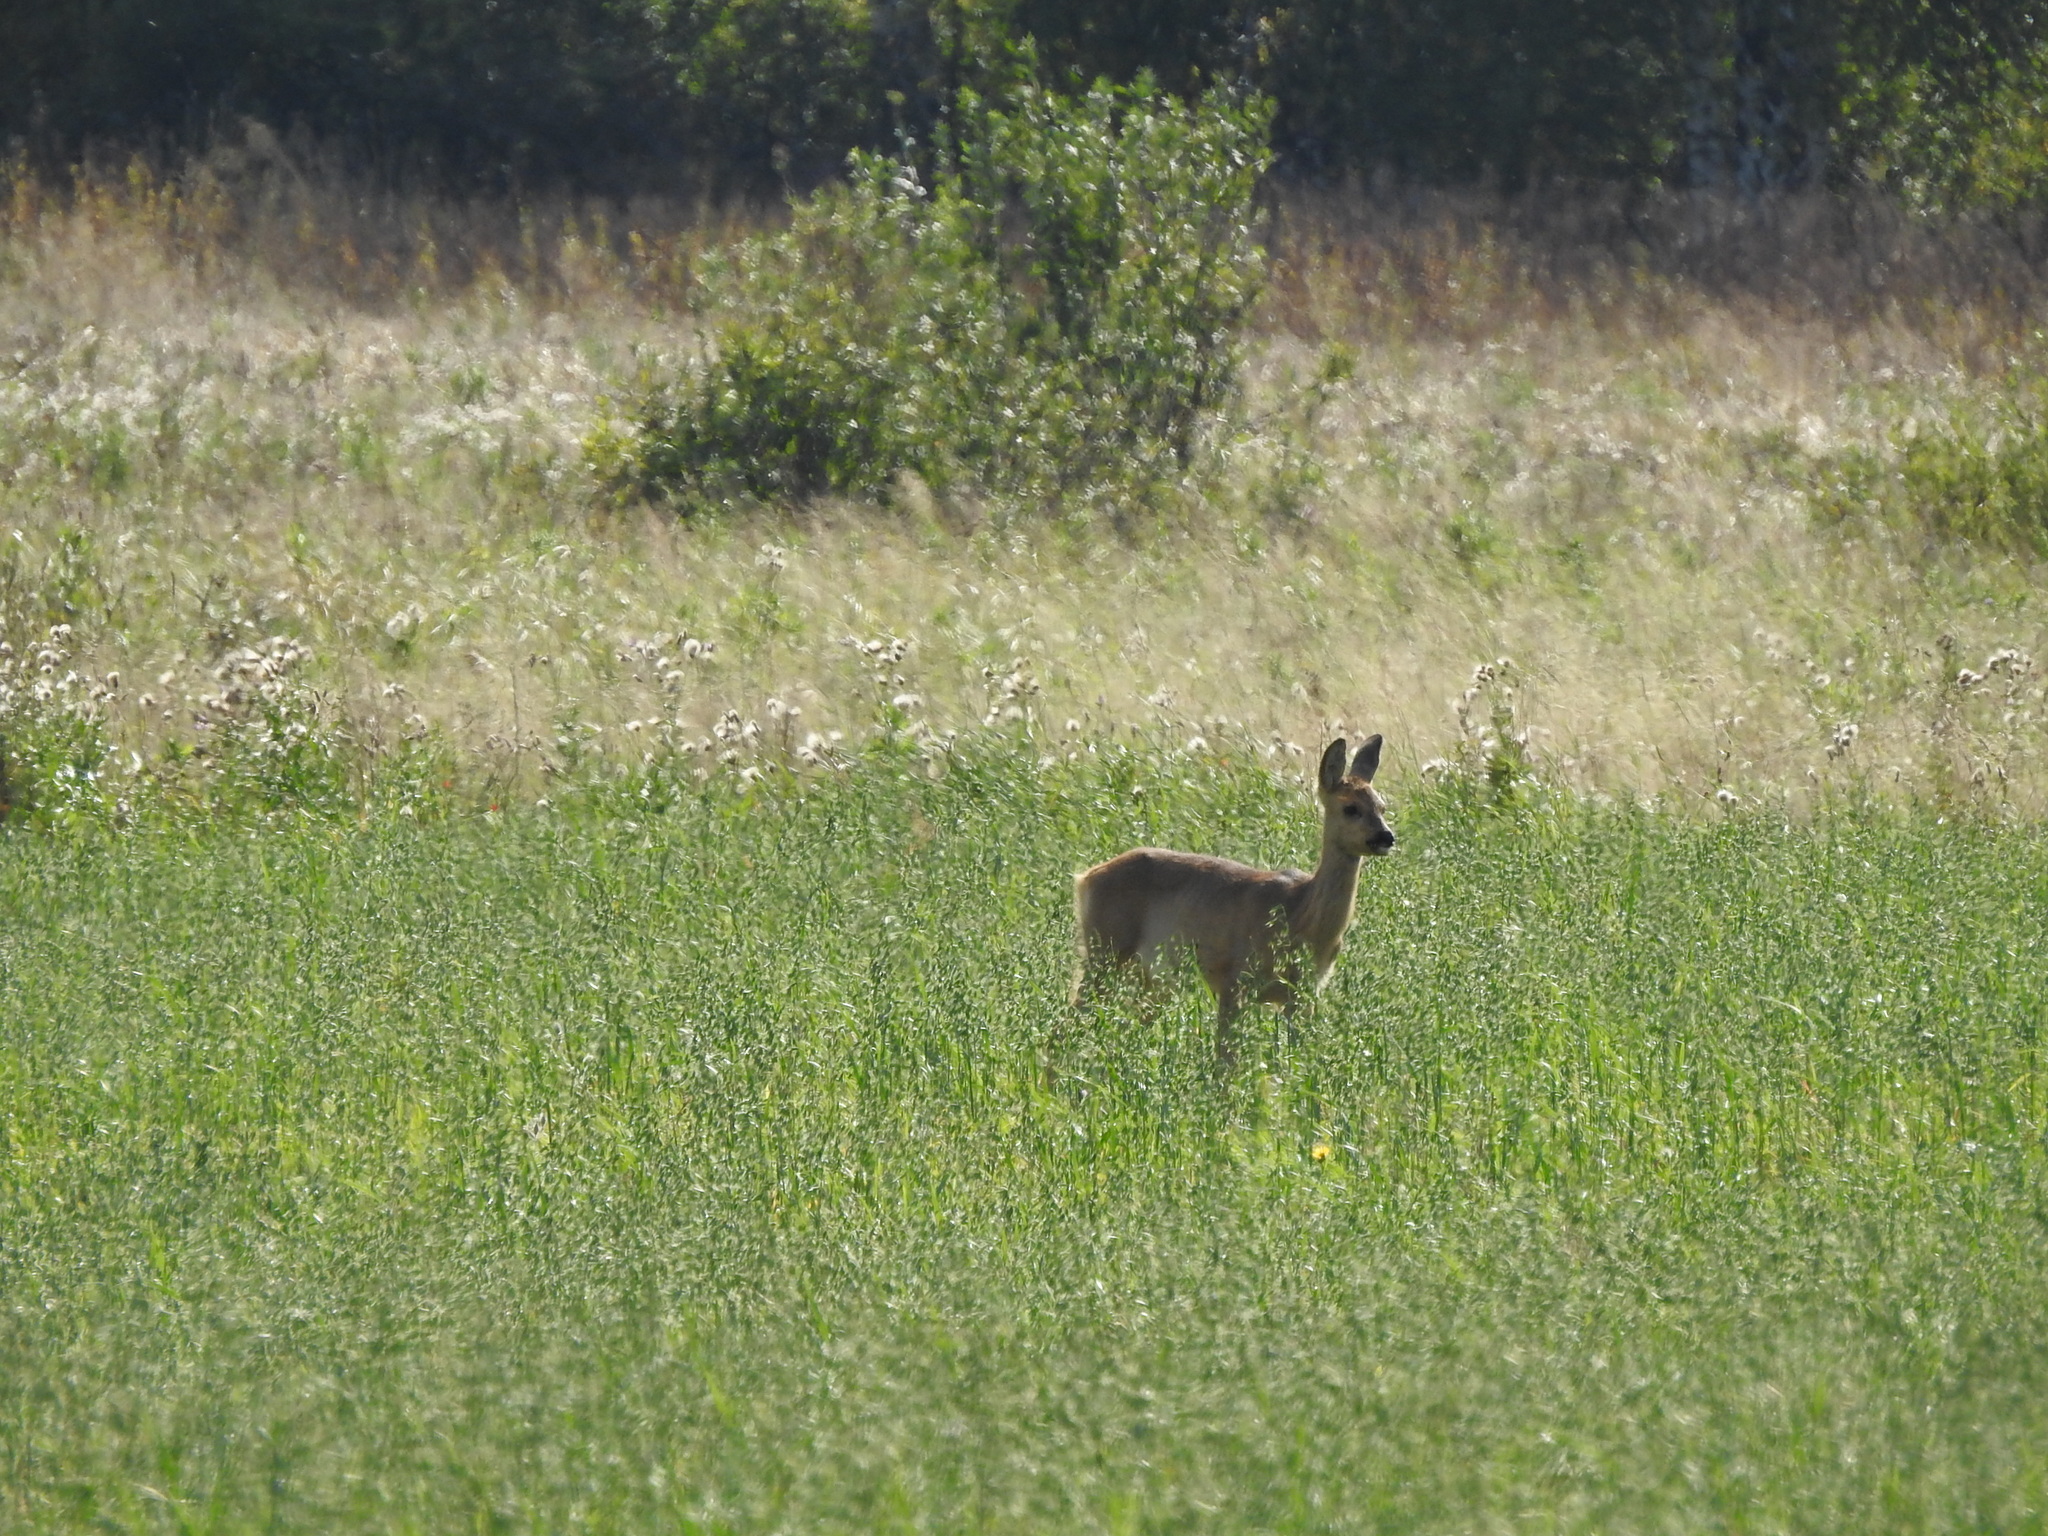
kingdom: Animalia
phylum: Chordata
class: Mammalia
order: Artiodactyla
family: Cervidae
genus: Capreolus
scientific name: Capreolus pygargus
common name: Siberian roe
